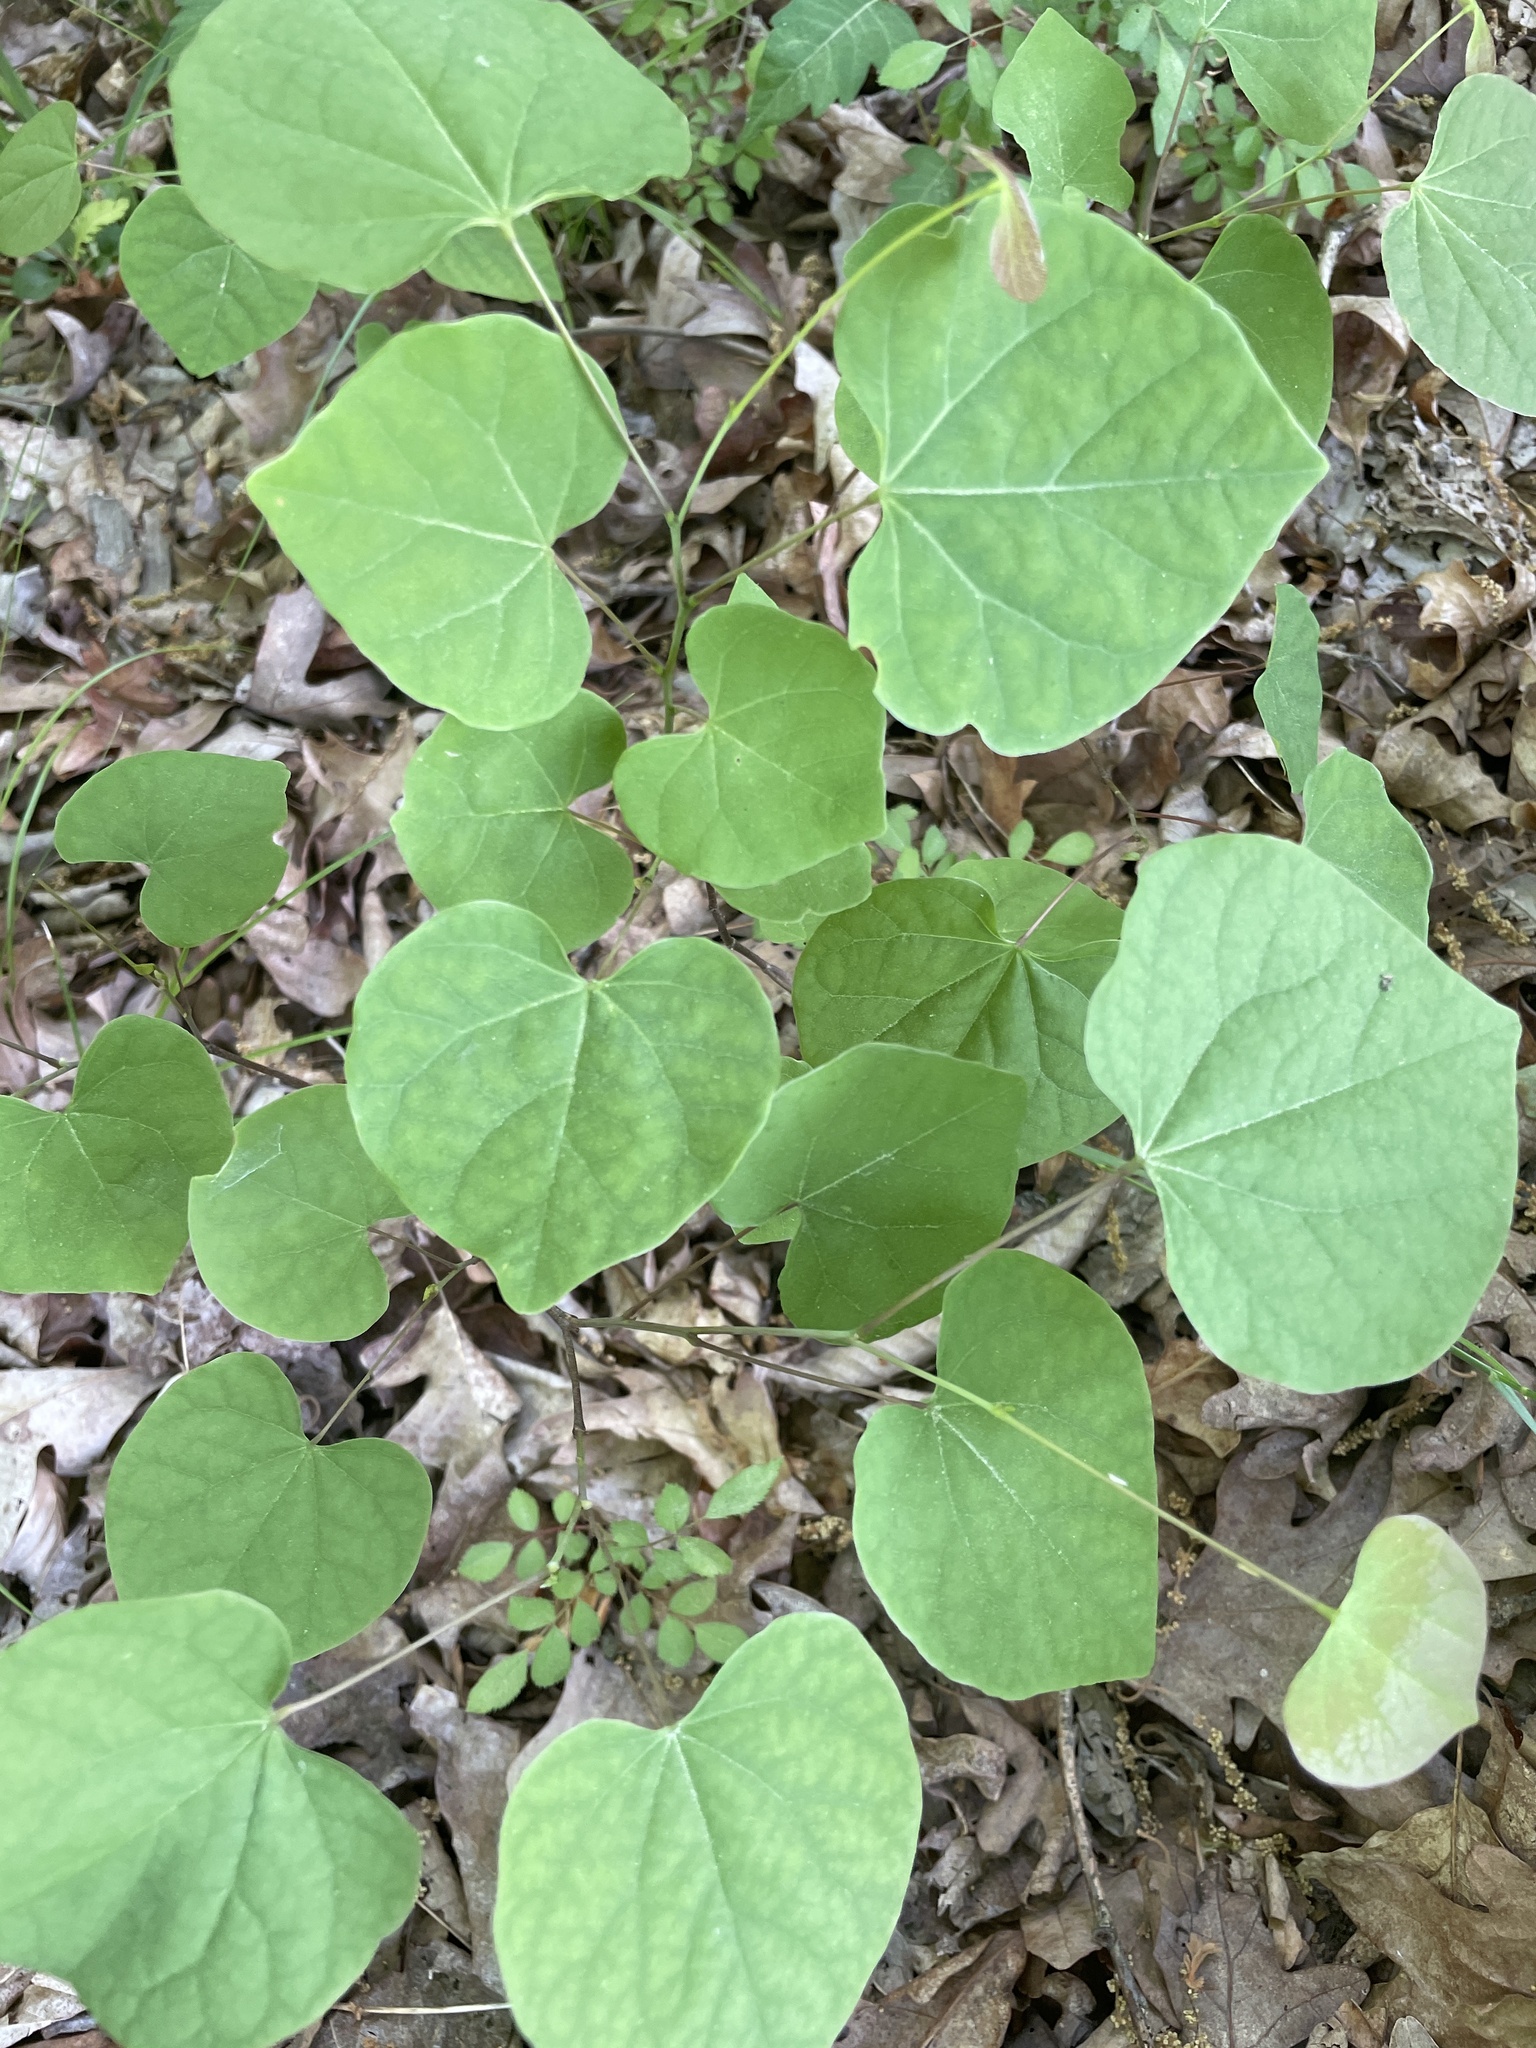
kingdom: Plantae
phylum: Tracheophyta
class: Magnoliopsida
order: Fabales
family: Fabaceae
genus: Cercis
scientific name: Cercis canadensis
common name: Eastern redbud
